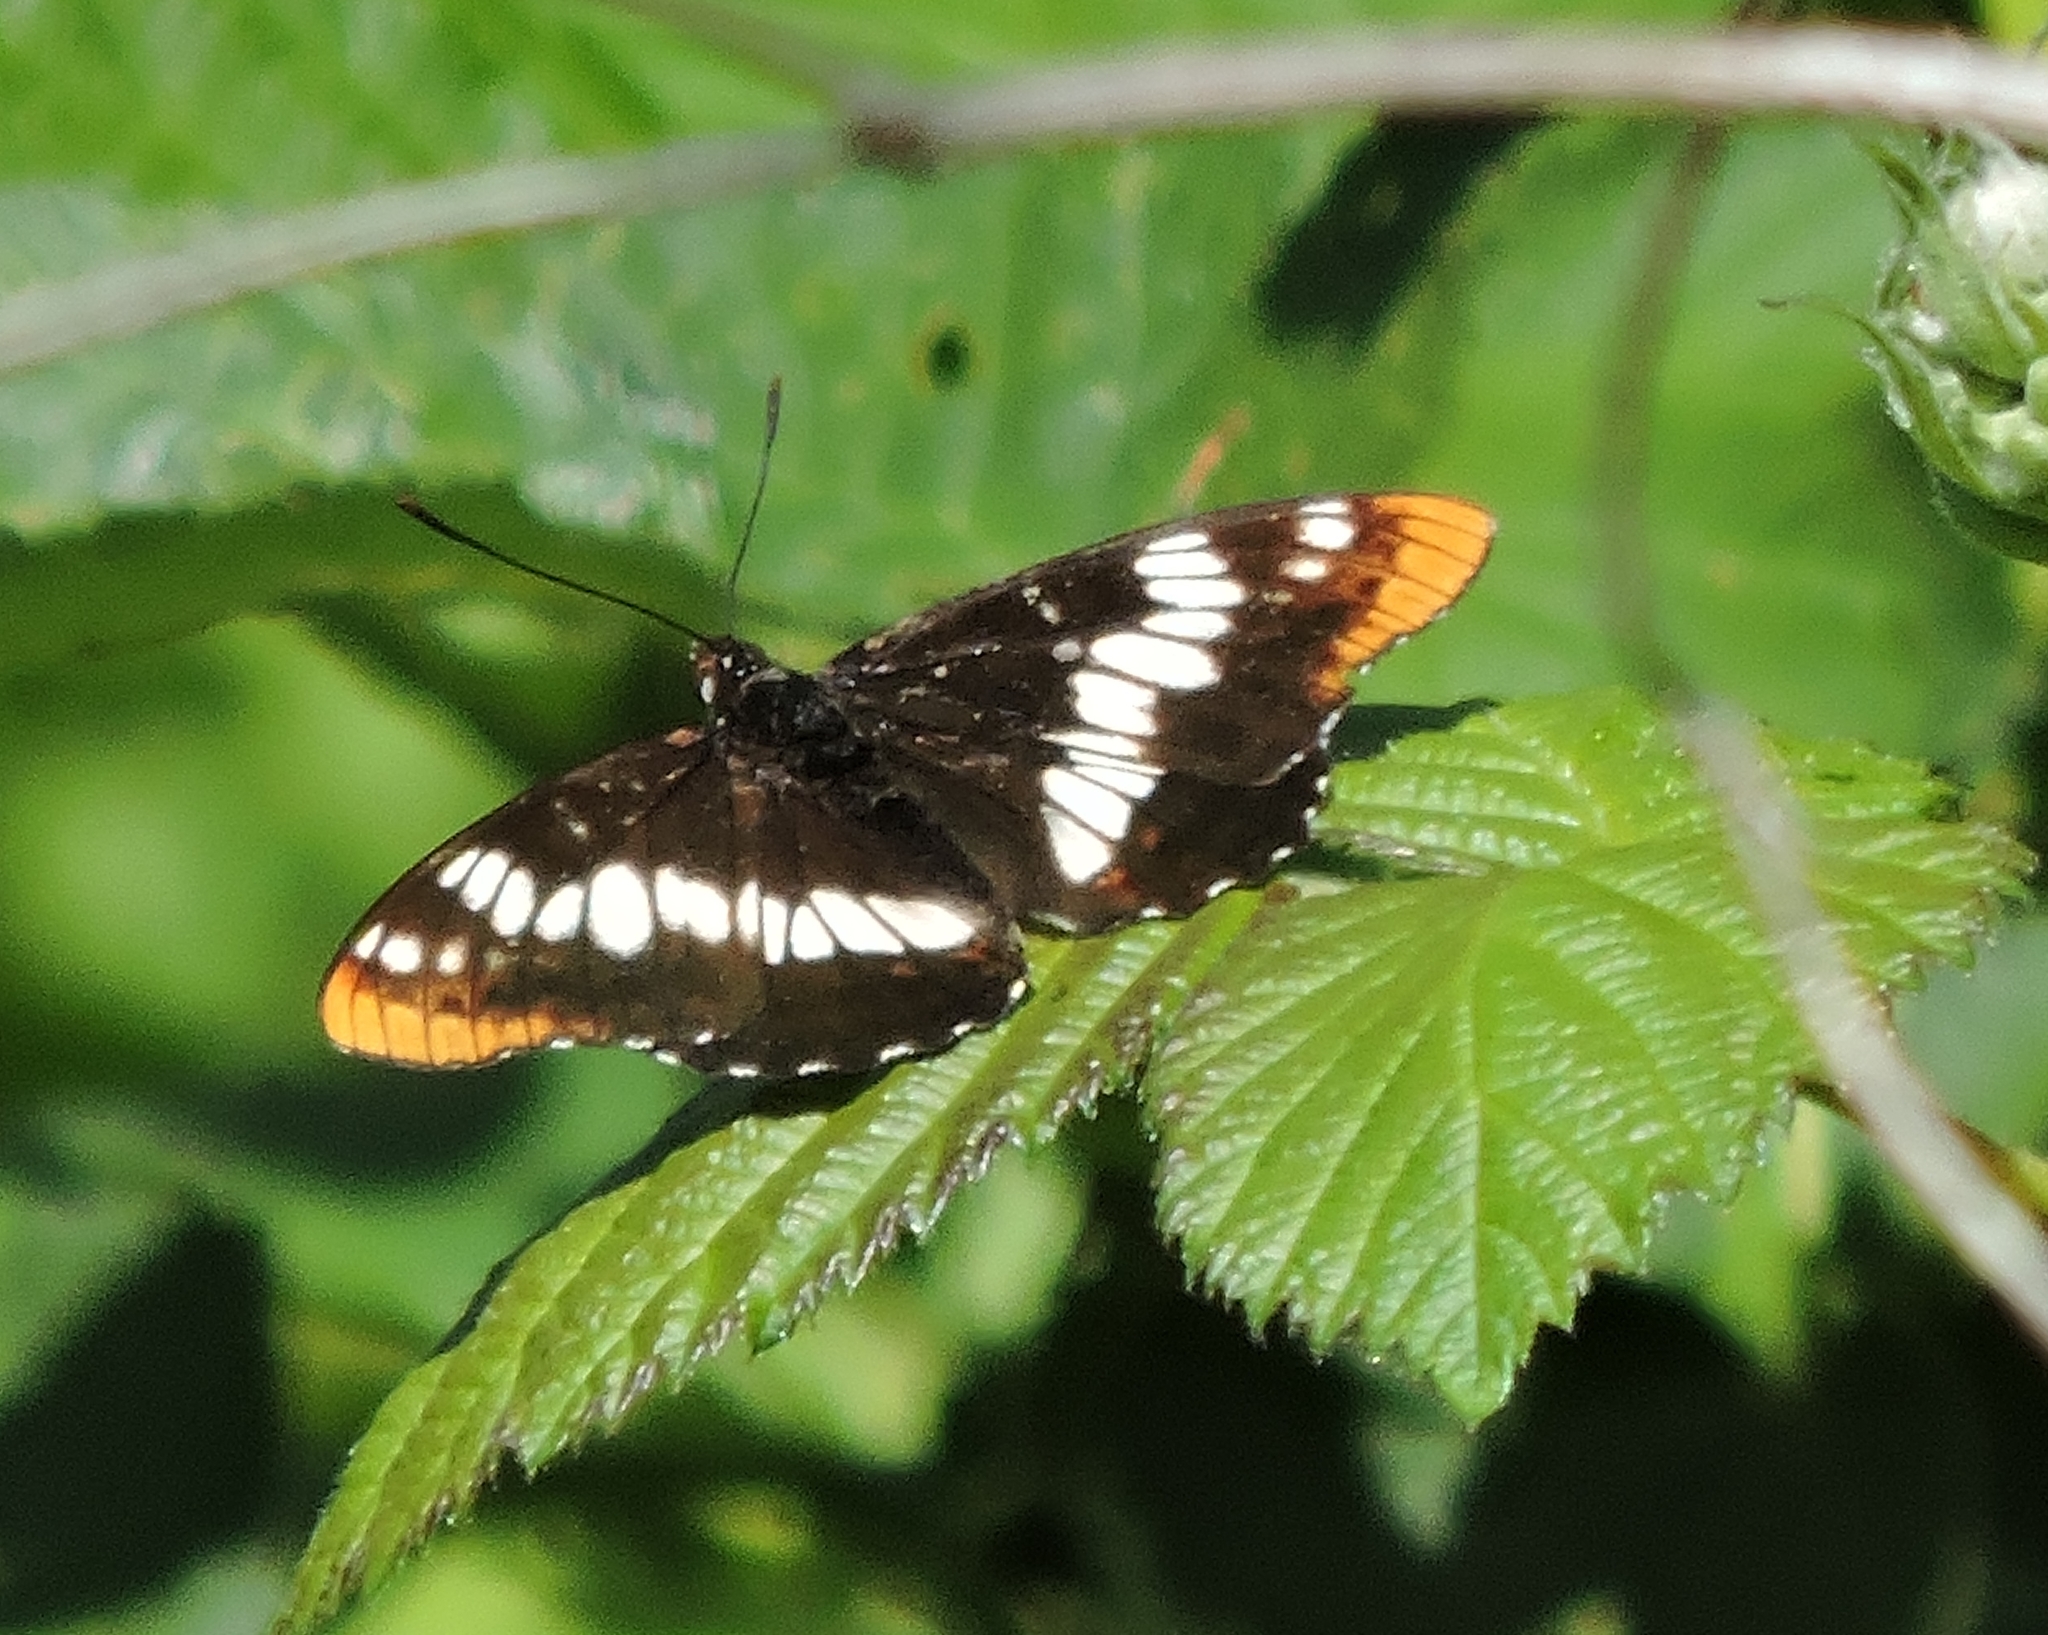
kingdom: Animalia
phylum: Arthropoda
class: Insecta
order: Lepidoptera
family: Nymphalidae
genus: Limenitis
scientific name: Limenitis lorquini
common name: Lorquin's admiral
